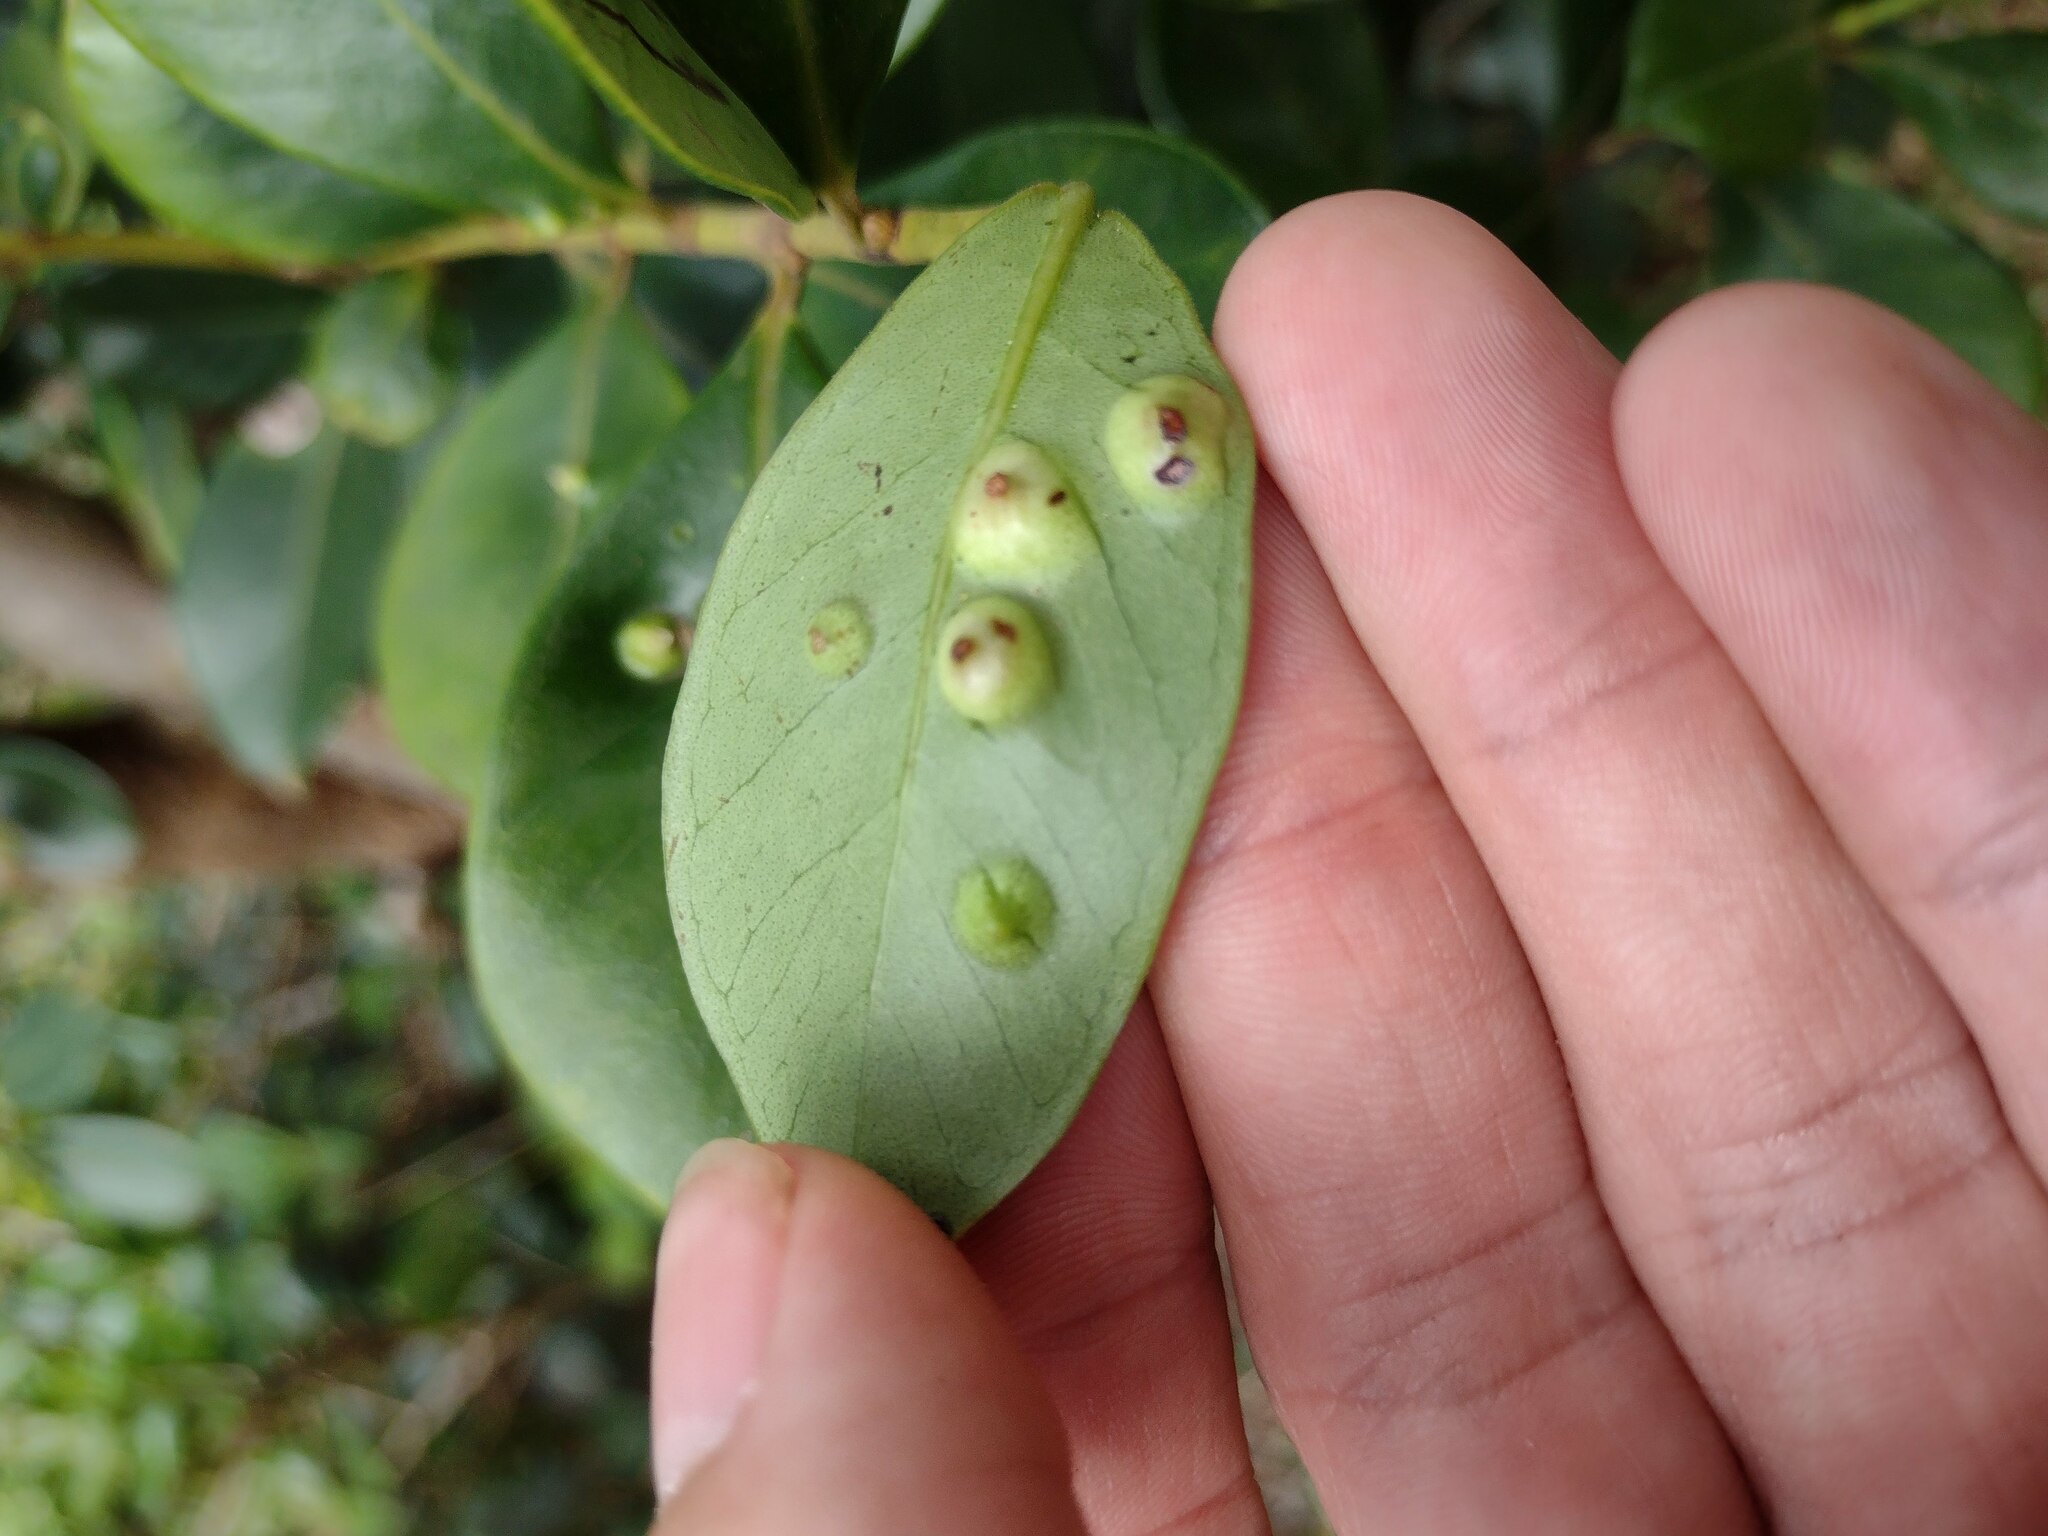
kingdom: Animalia
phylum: Arthropoda
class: Insecta
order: Hemiptera
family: Eriococcidae
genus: Tectococcus
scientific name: Tectococcus ovatus
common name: Eriococcid scale
